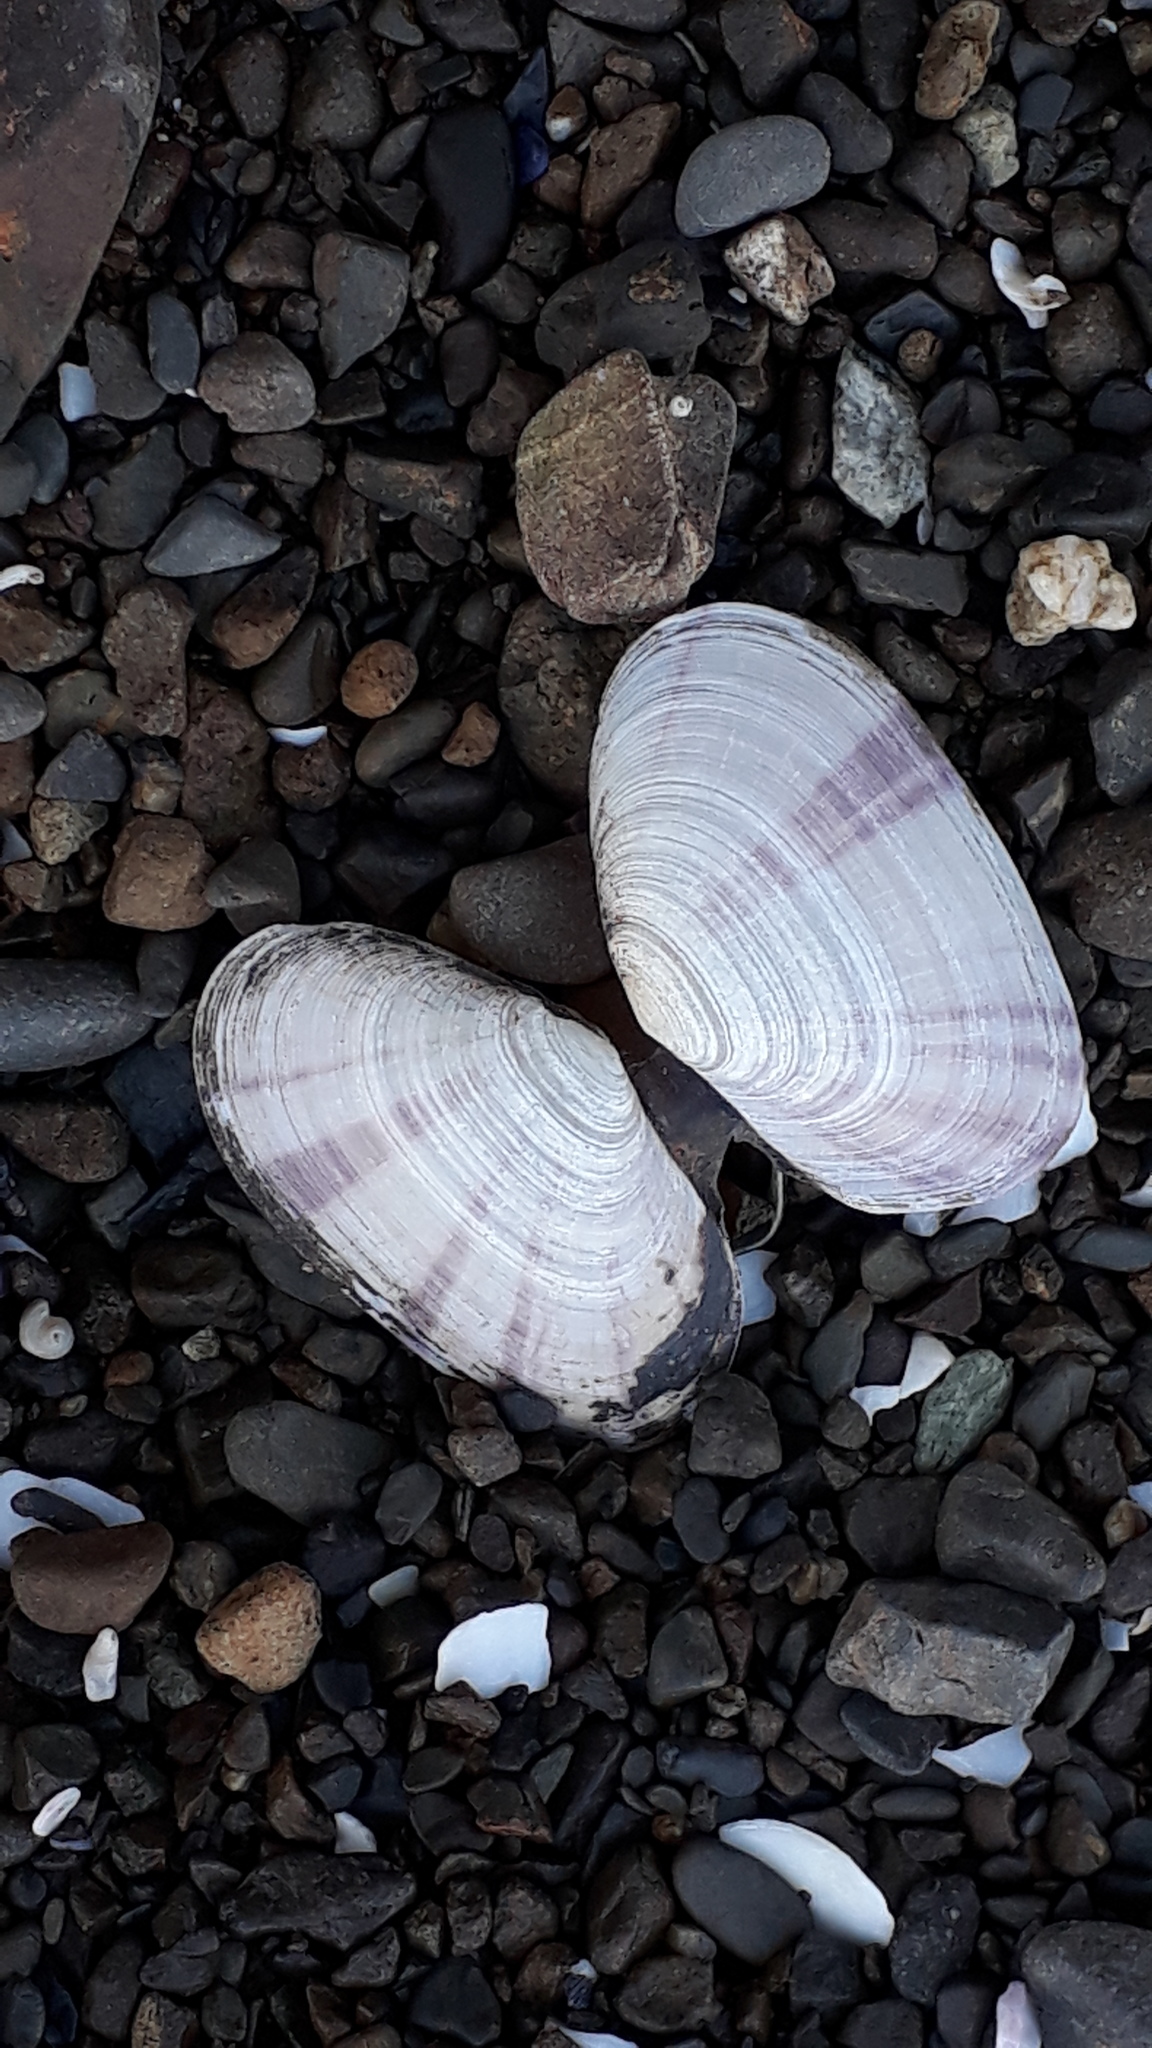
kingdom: Animalia
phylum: Mollusca
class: Bivalvia
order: Cardiida
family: Psammobiidae
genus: Gari
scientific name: Gari stangeri
